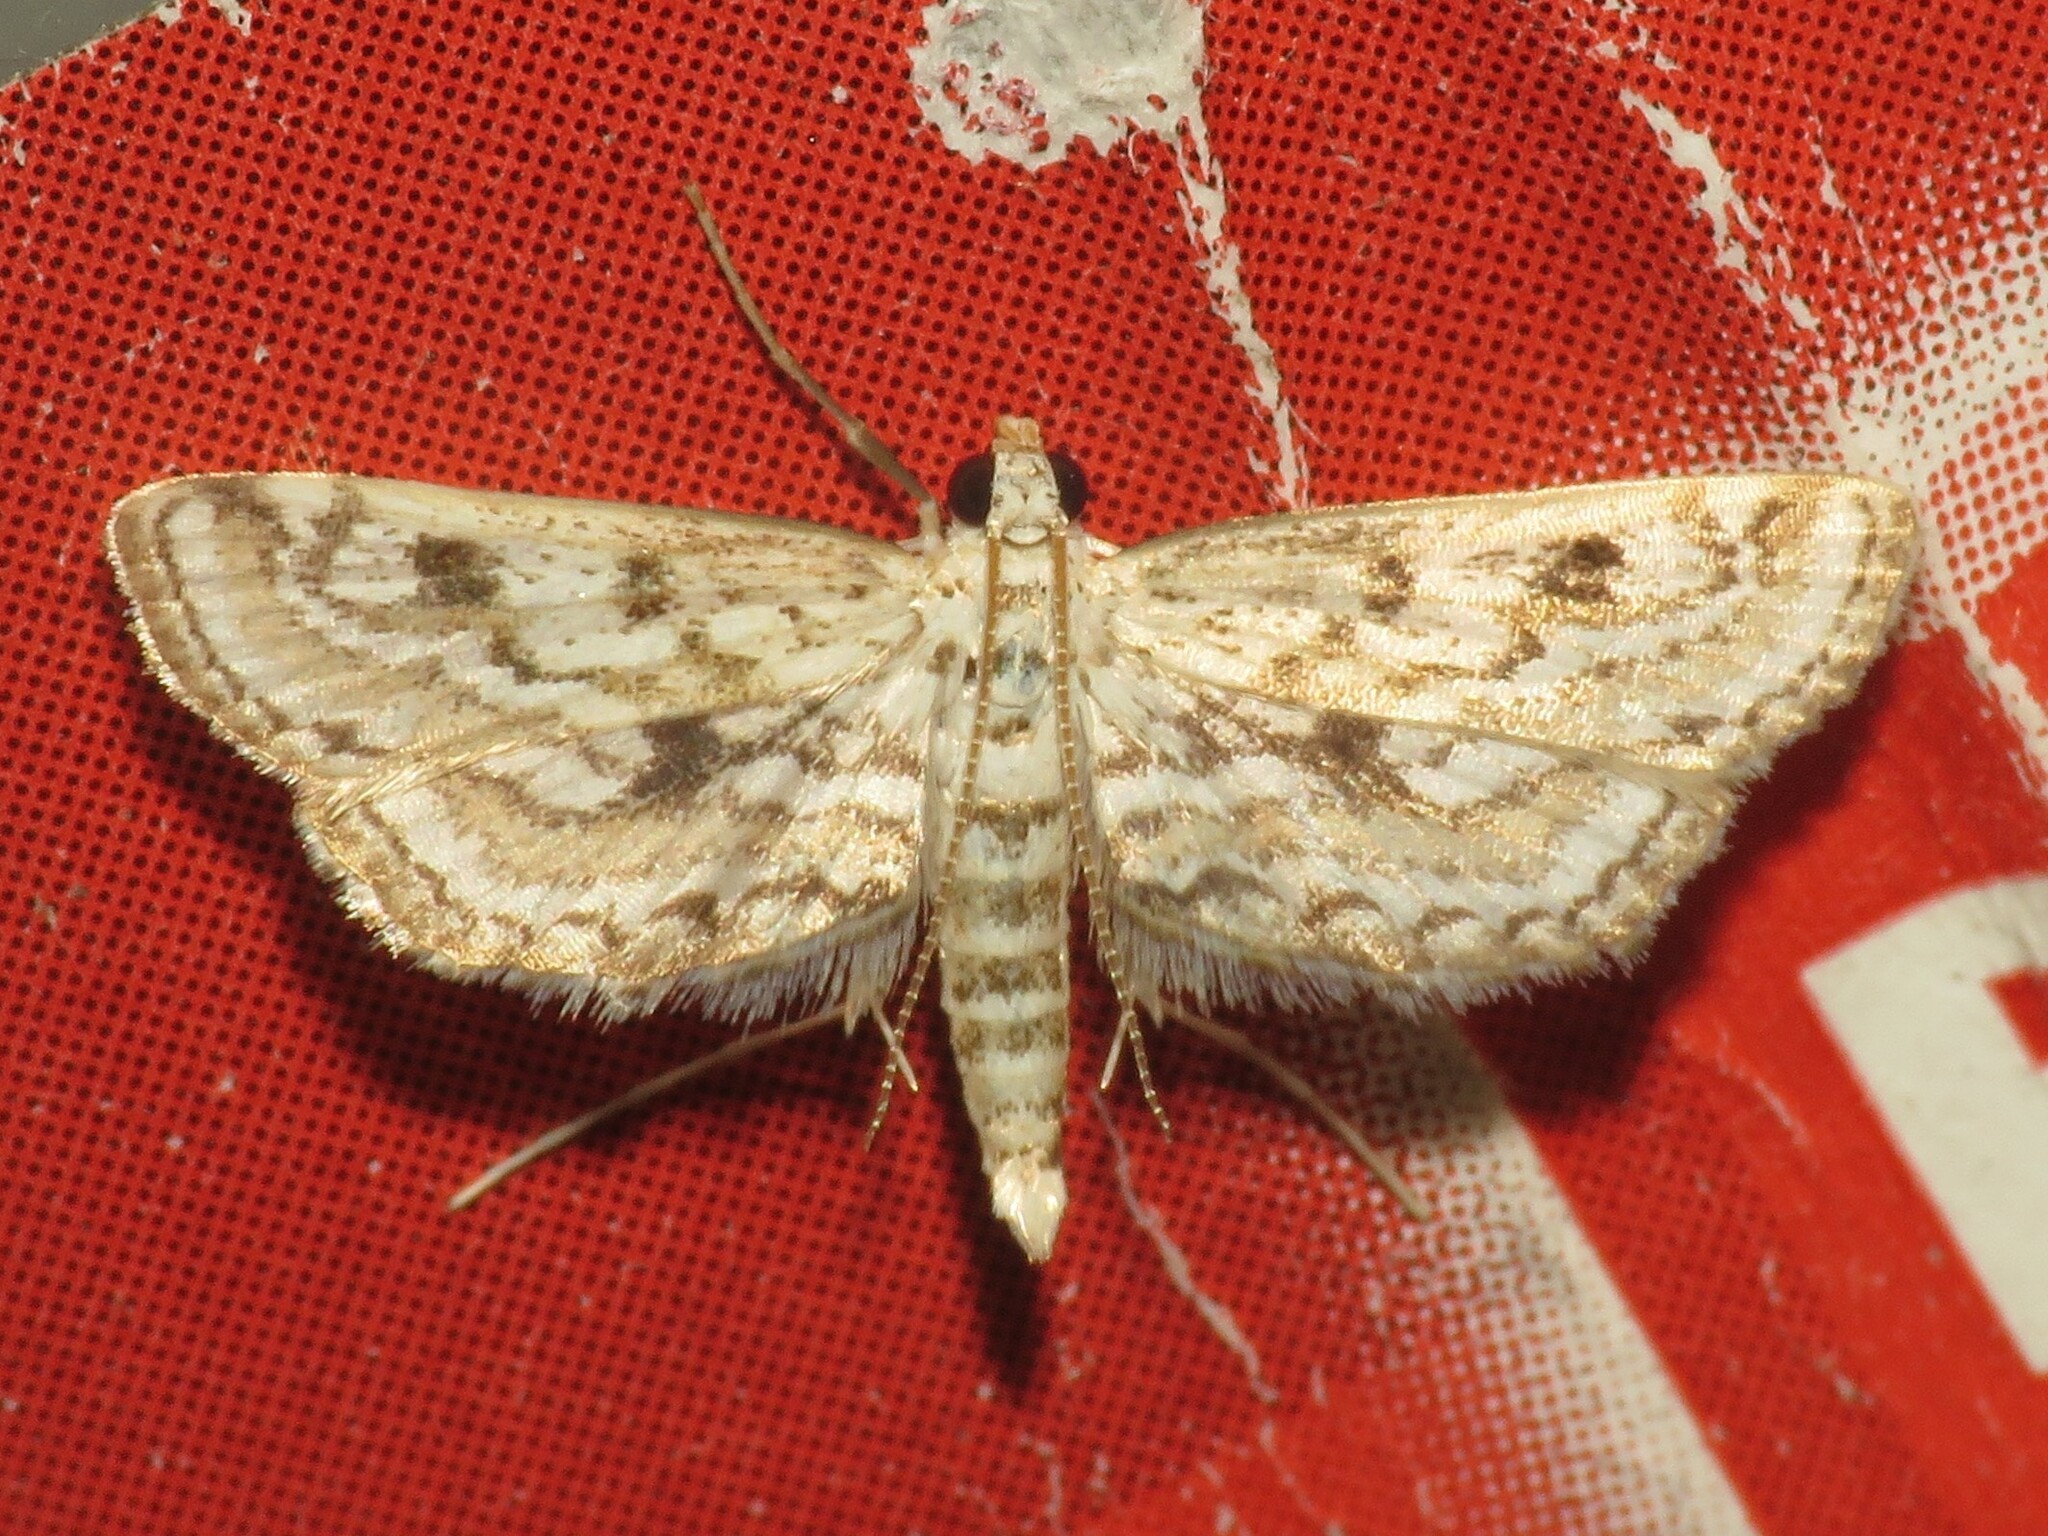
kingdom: Animalia
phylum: Arthropoda
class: Insecta
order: Lepidoptera
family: Crambidae
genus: Parapoynx
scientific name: Parapoynx allionealis
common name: Bladderwort casemaker
